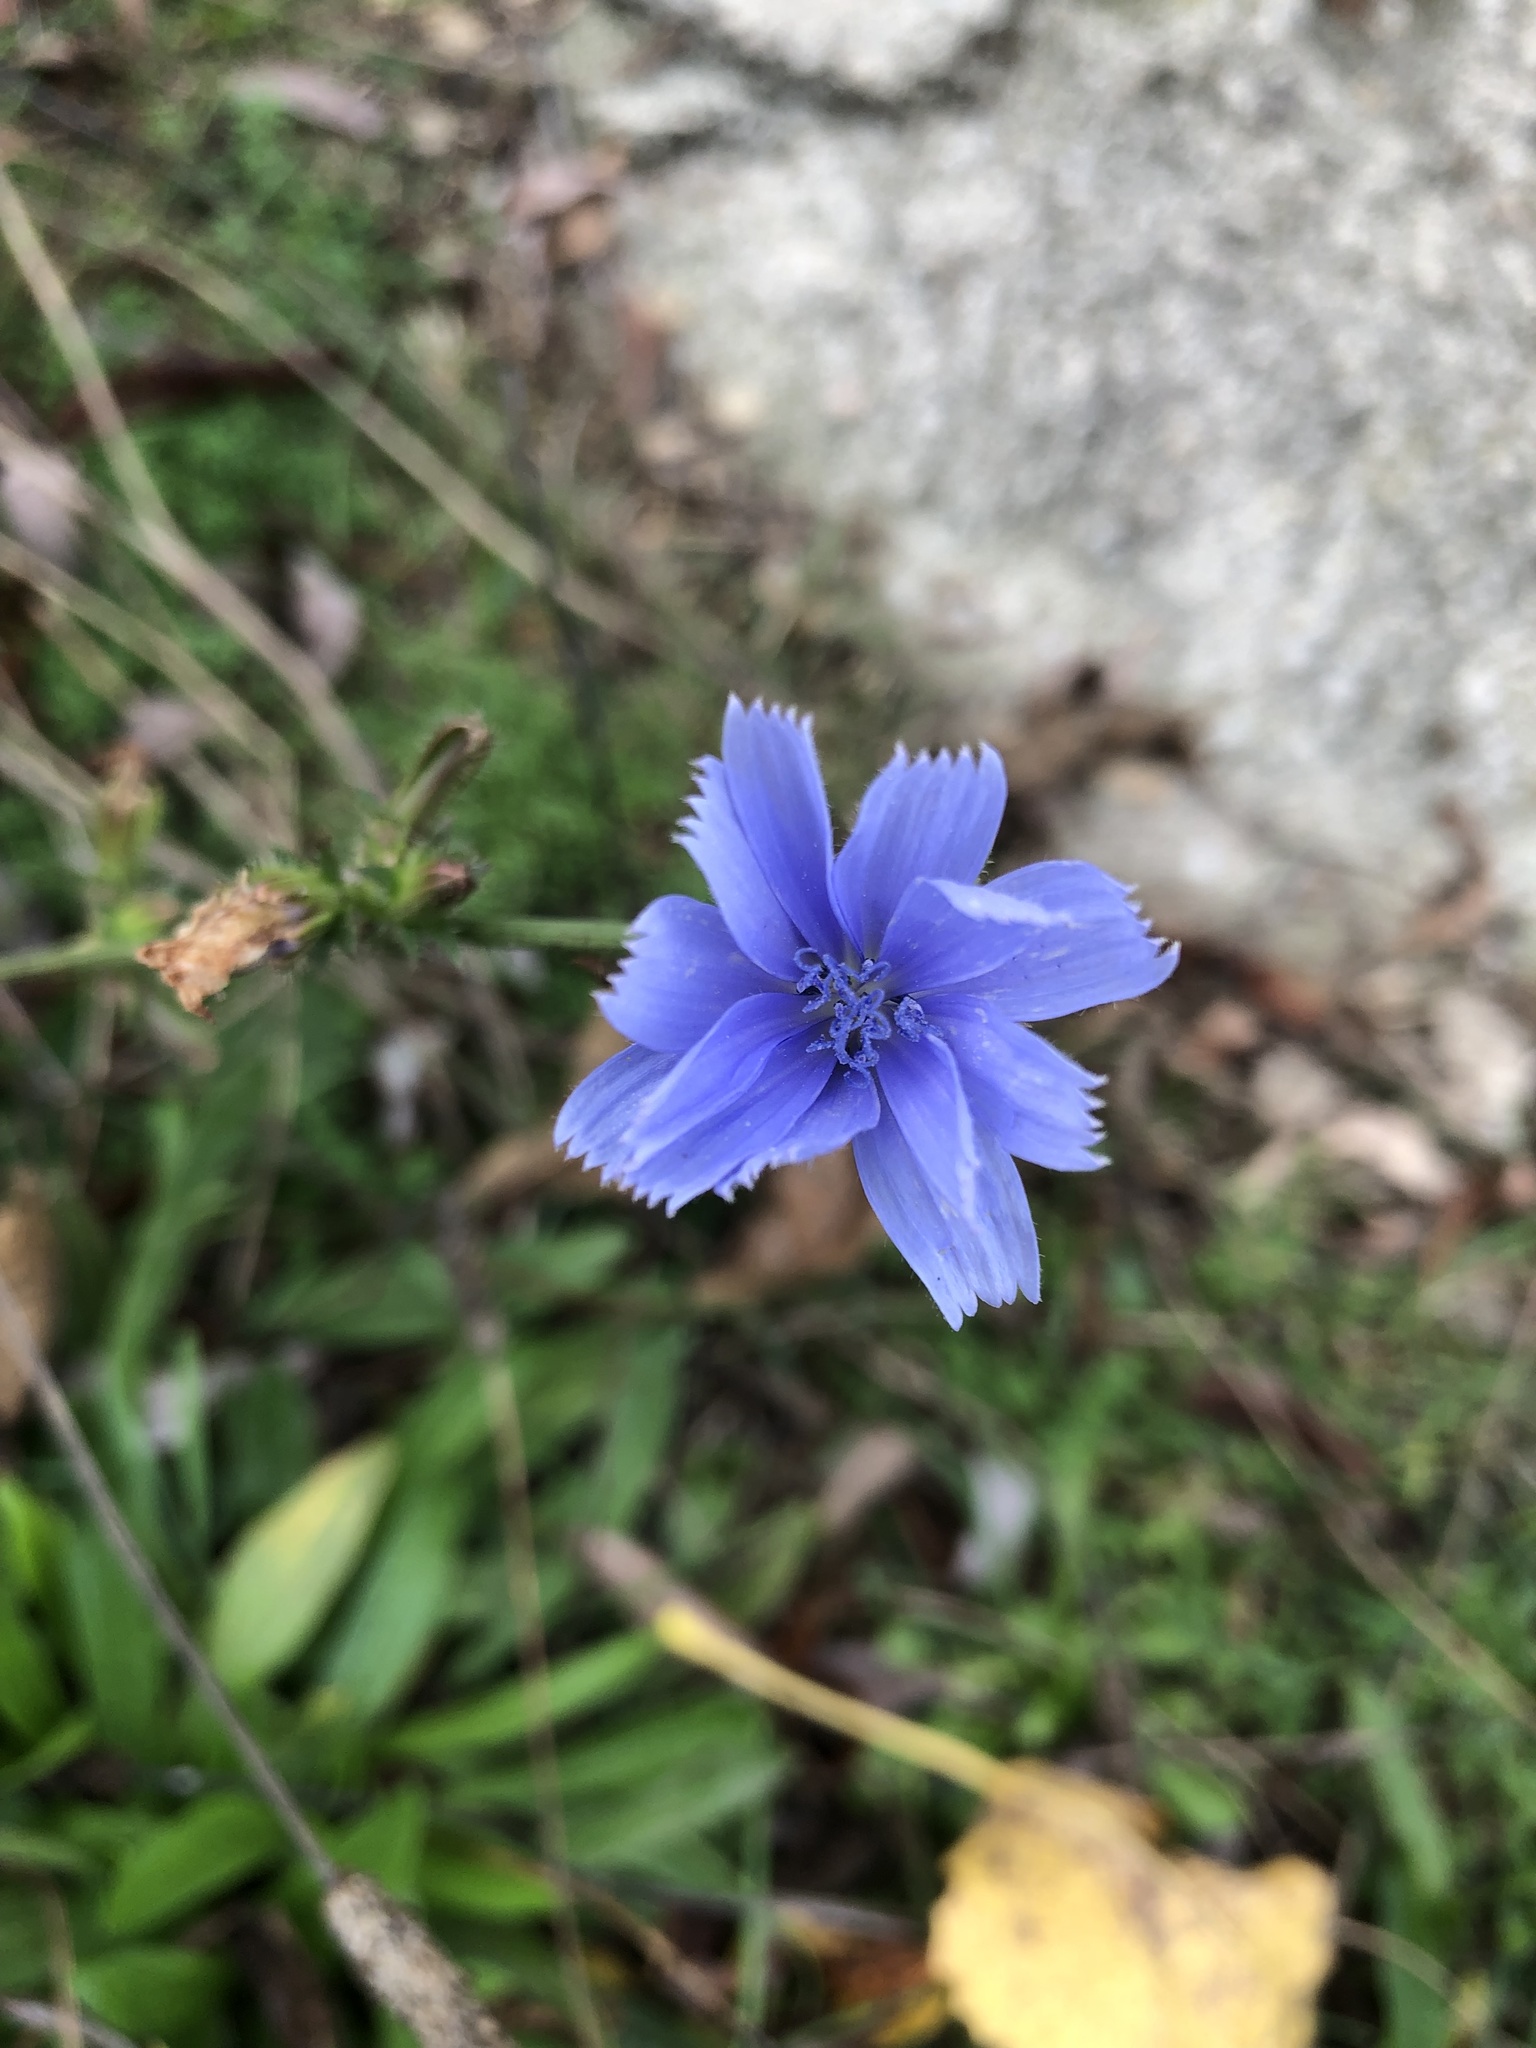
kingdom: Plantae
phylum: Tracheophyta
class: Magnoliopsida
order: Asterales
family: Asteraceae
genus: Cichorium
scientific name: Cichorium intybus
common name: Chicory
